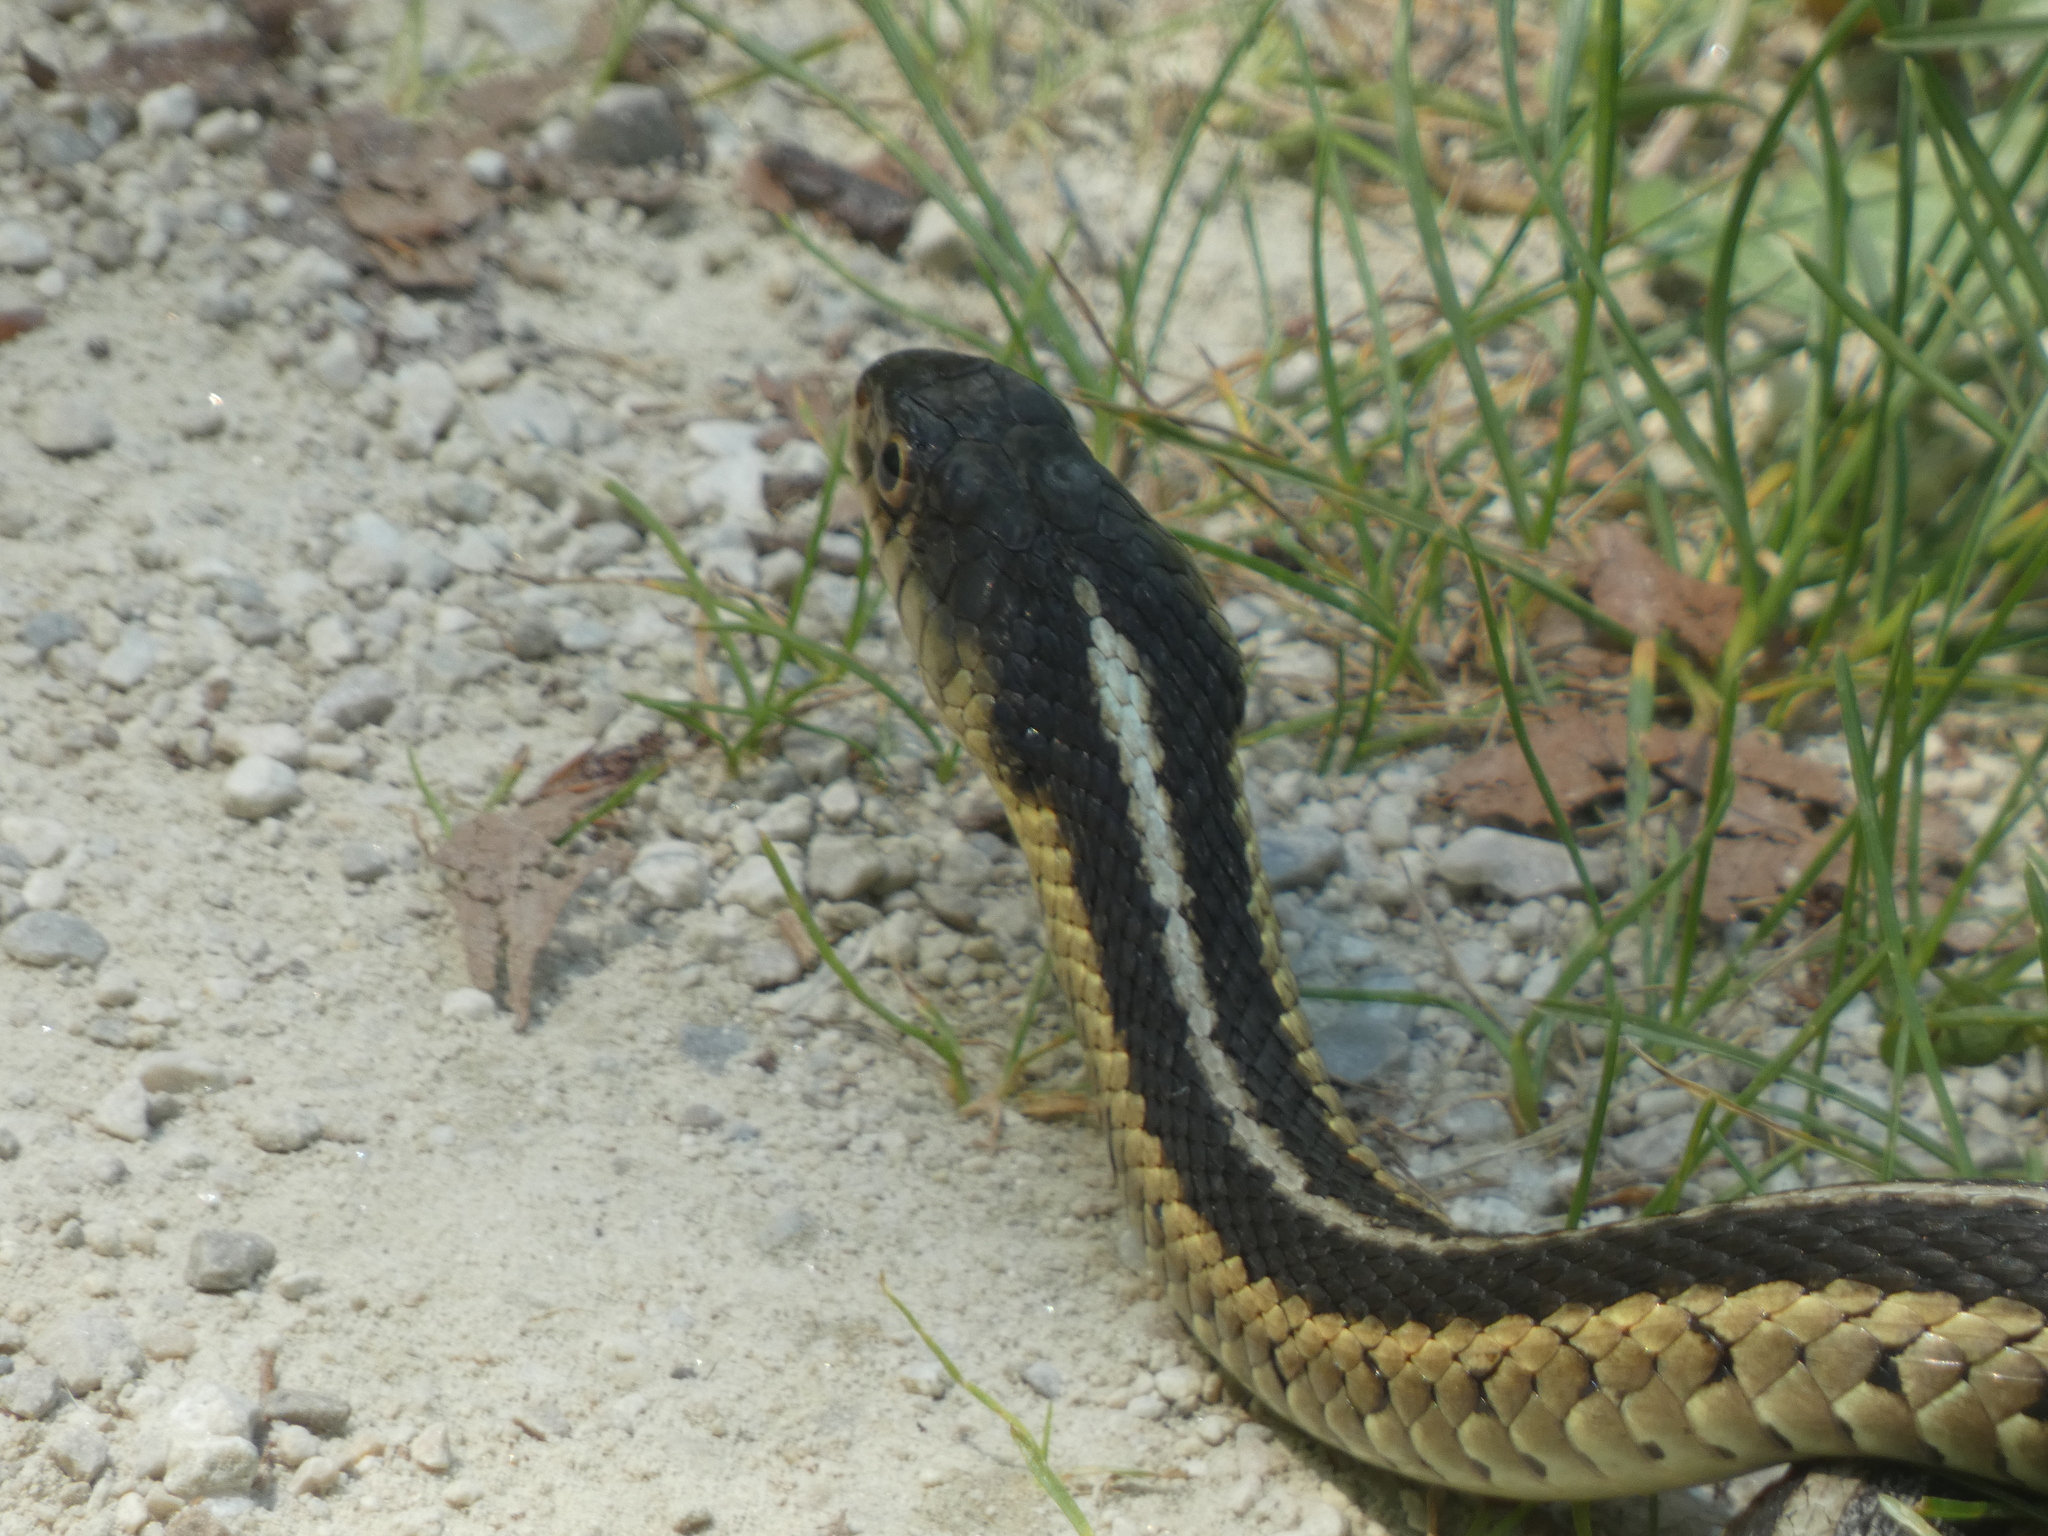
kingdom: Animalia
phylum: Chordata
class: Squamata
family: Colubridae
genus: Thamnophis
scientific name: Thamnophis sirtalis
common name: Common garter snake
